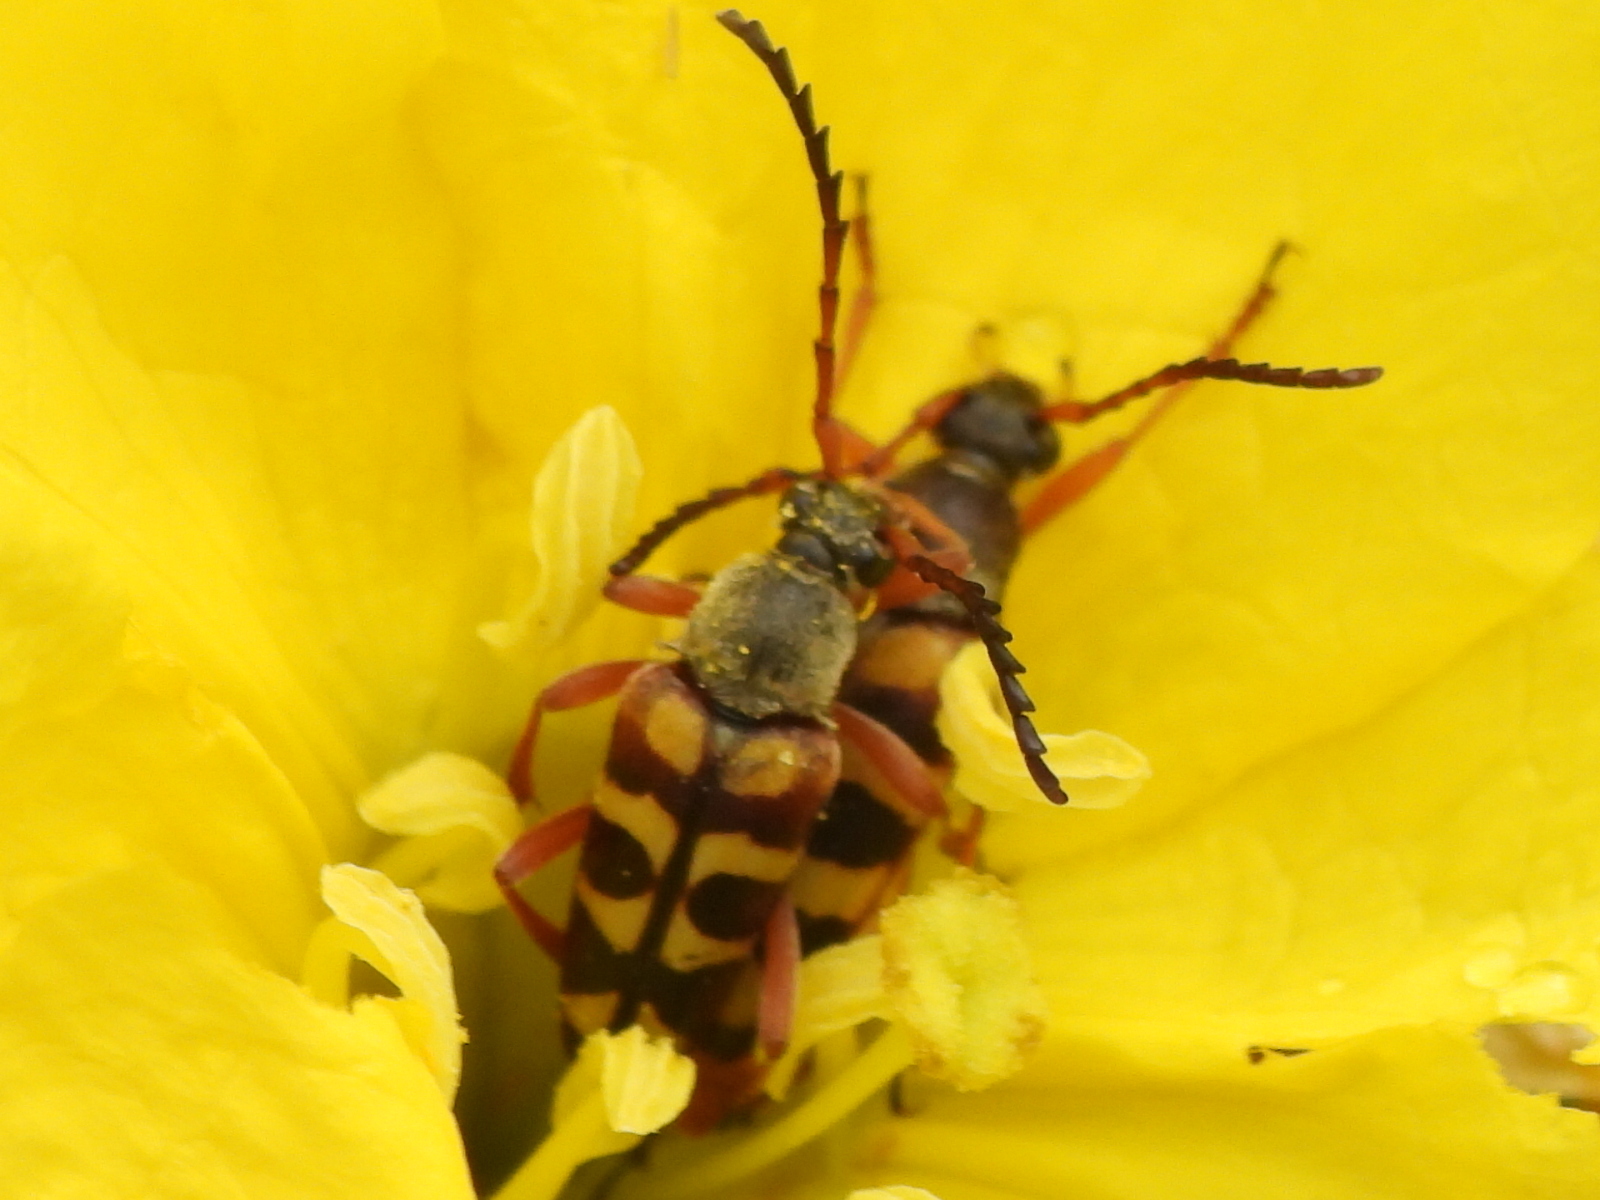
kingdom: Animalia
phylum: Arthropoda
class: Insecta
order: Coleoptera
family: Cerambycidae
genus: Typocerus
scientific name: Typocerus sinuatus
